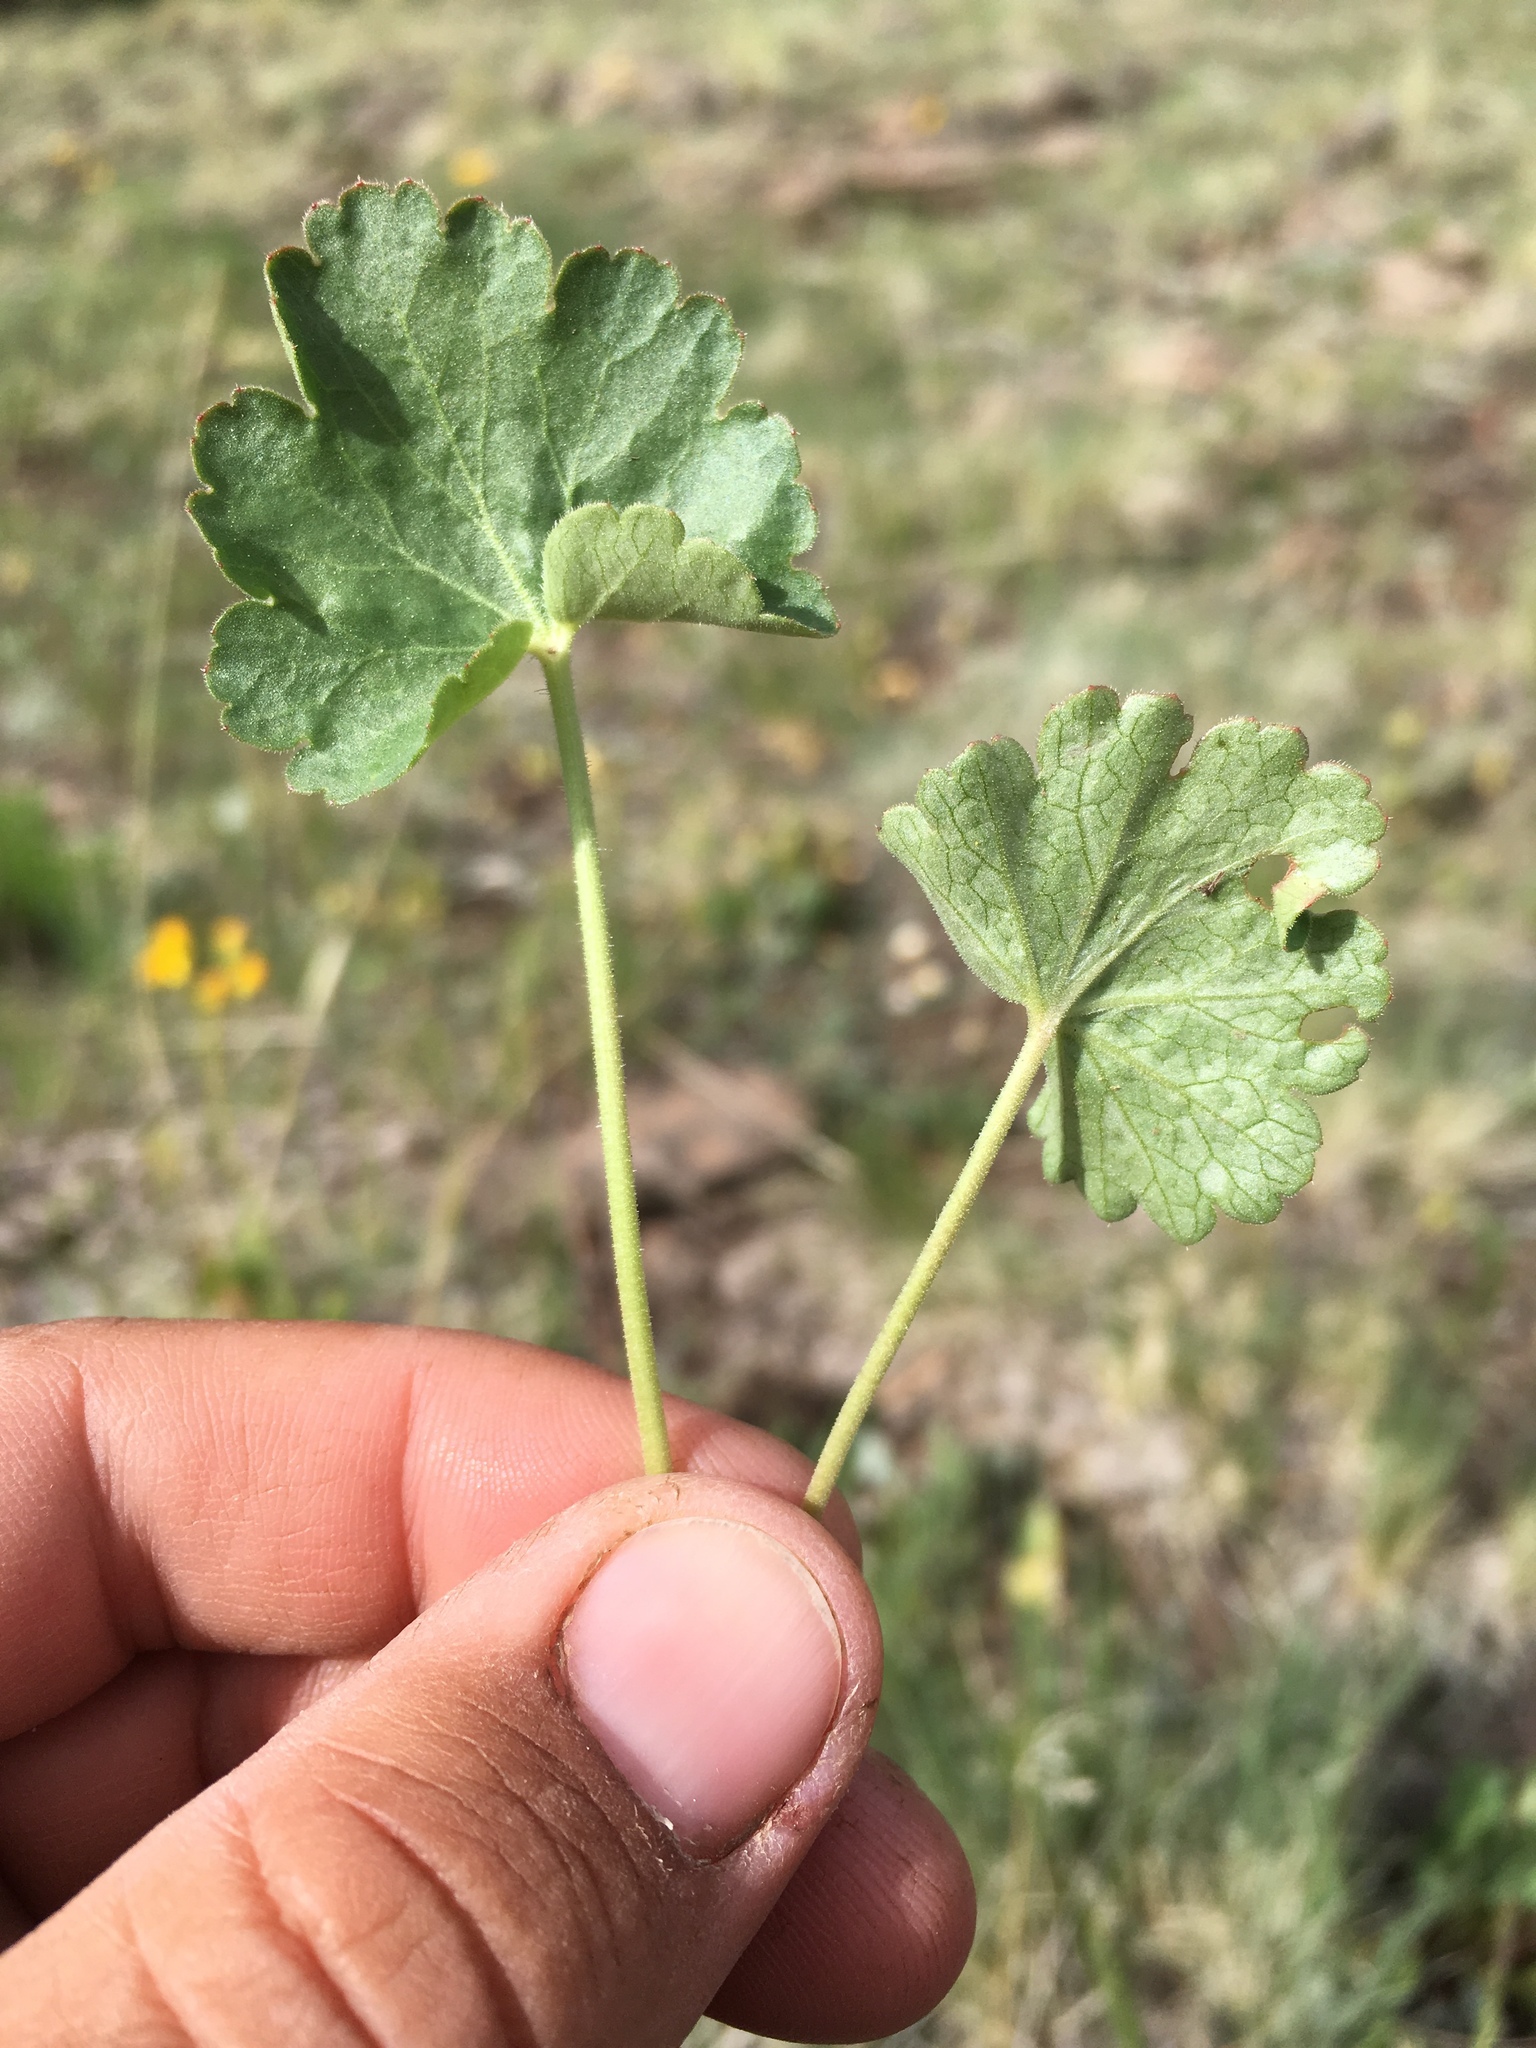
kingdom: Plantae
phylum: Tracheophyta
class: Magnoliopsida
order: Saxifragales
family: Saxifragaceae
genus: Heuchera
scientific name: Heuchera parvifolia
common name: Common alumroot
